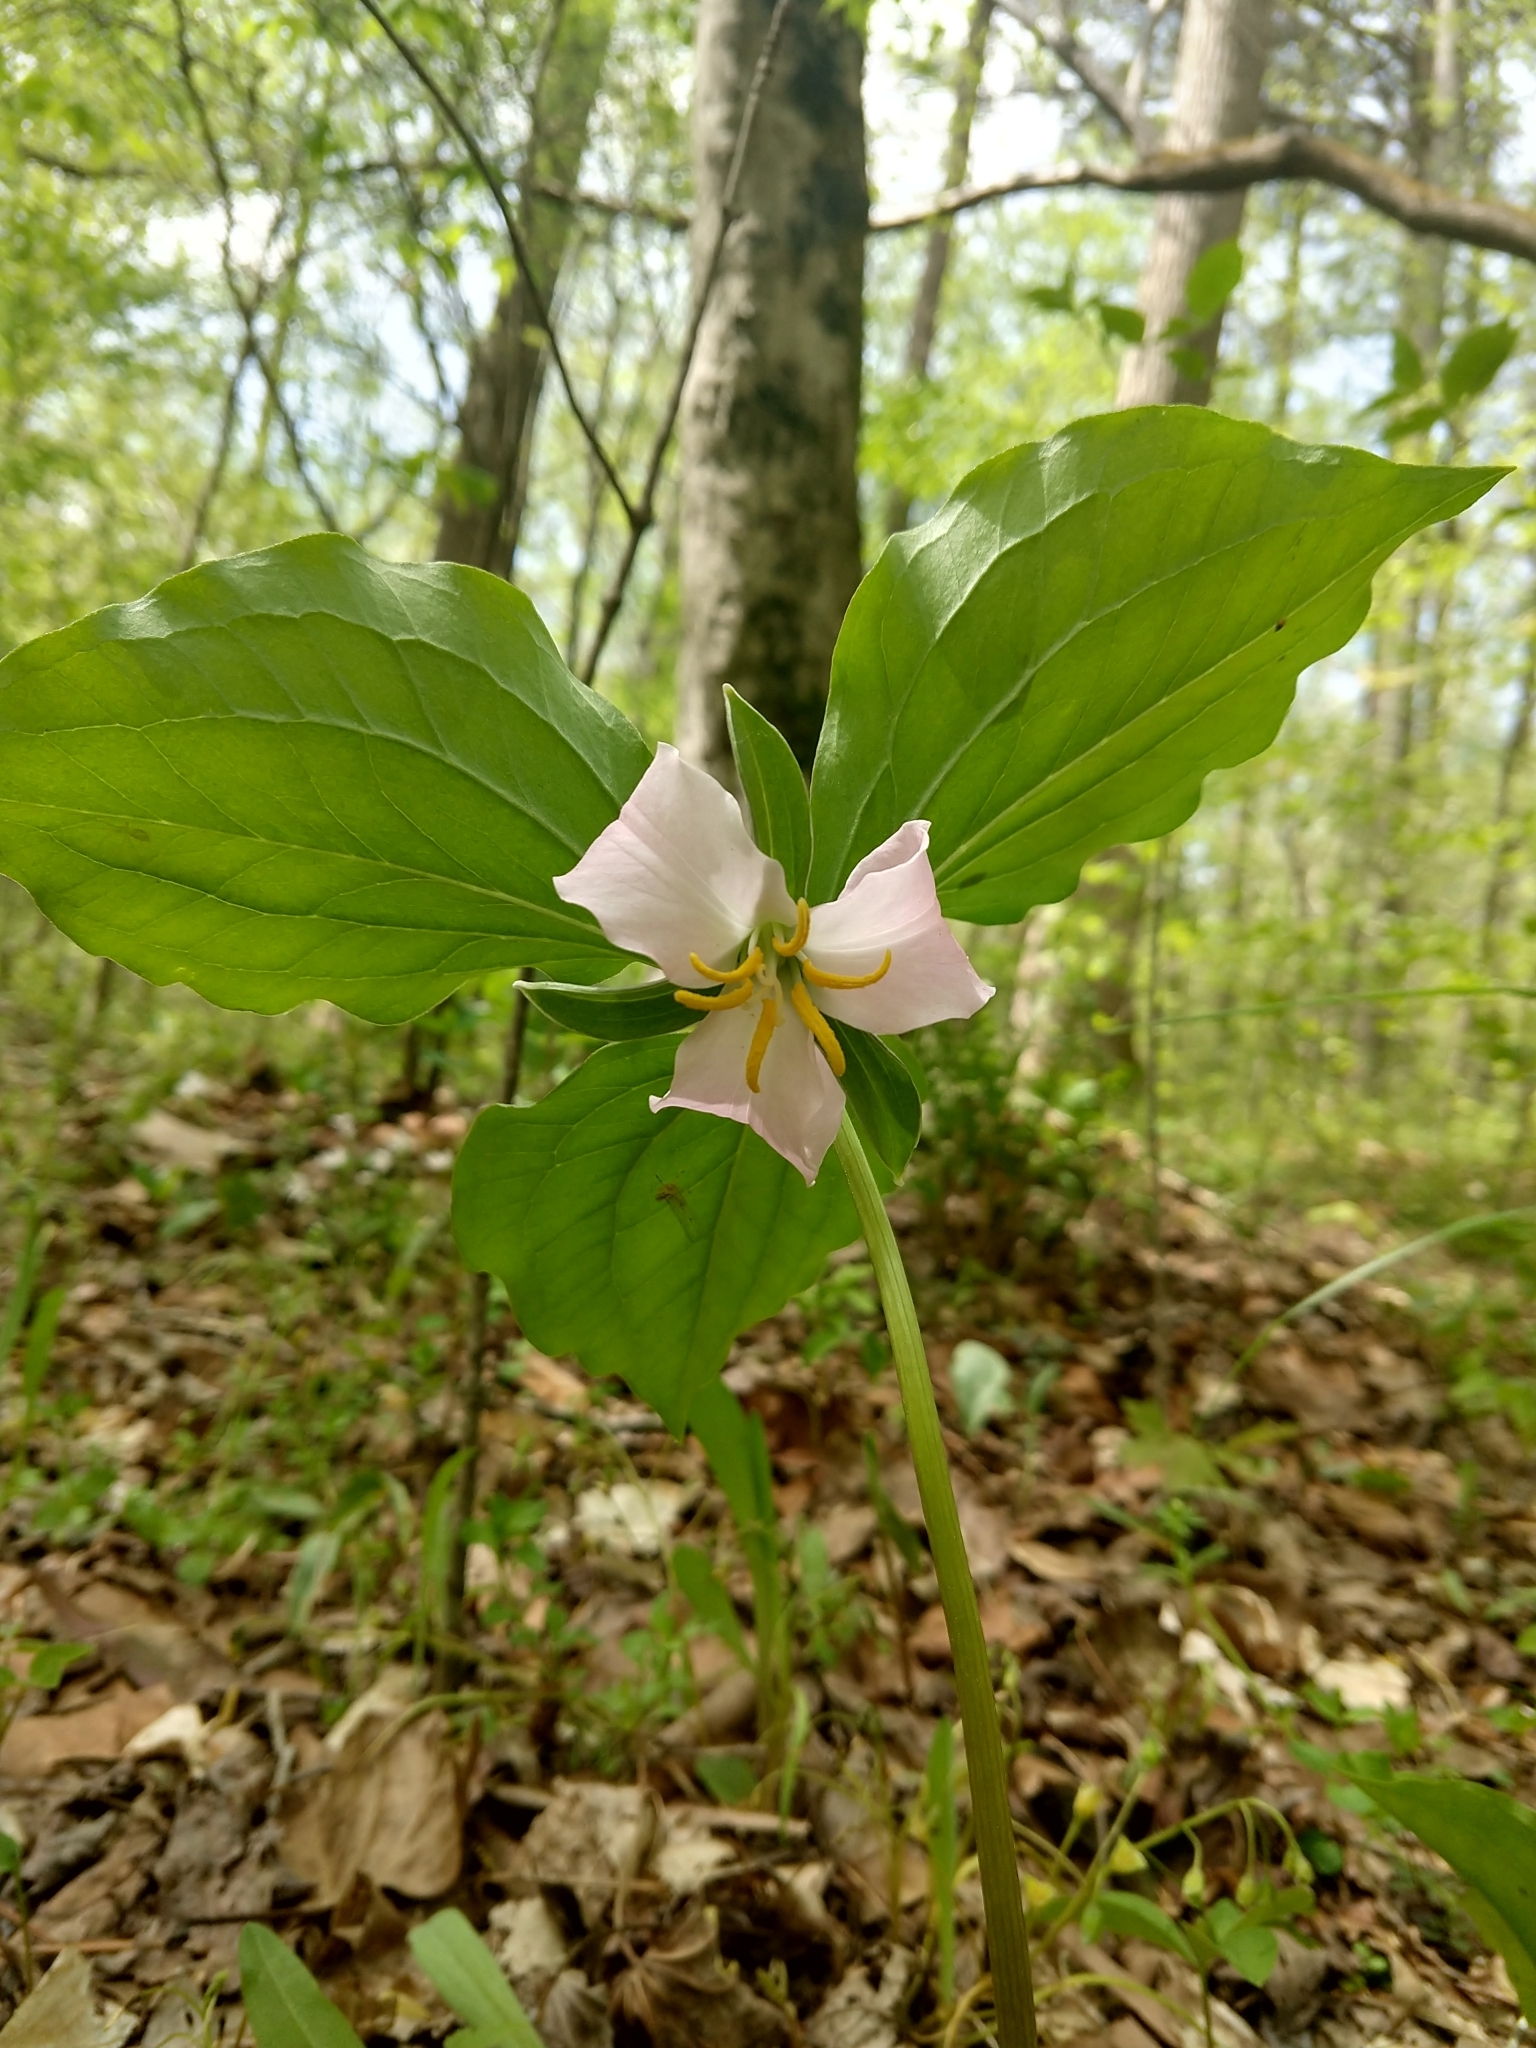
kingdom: Plantae
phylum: Tracheophyta
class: Liliopsida
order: Liliales
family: Melanthiaceae
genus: Trillium
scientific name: Trillium catesbaei
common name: Bashful trillium
